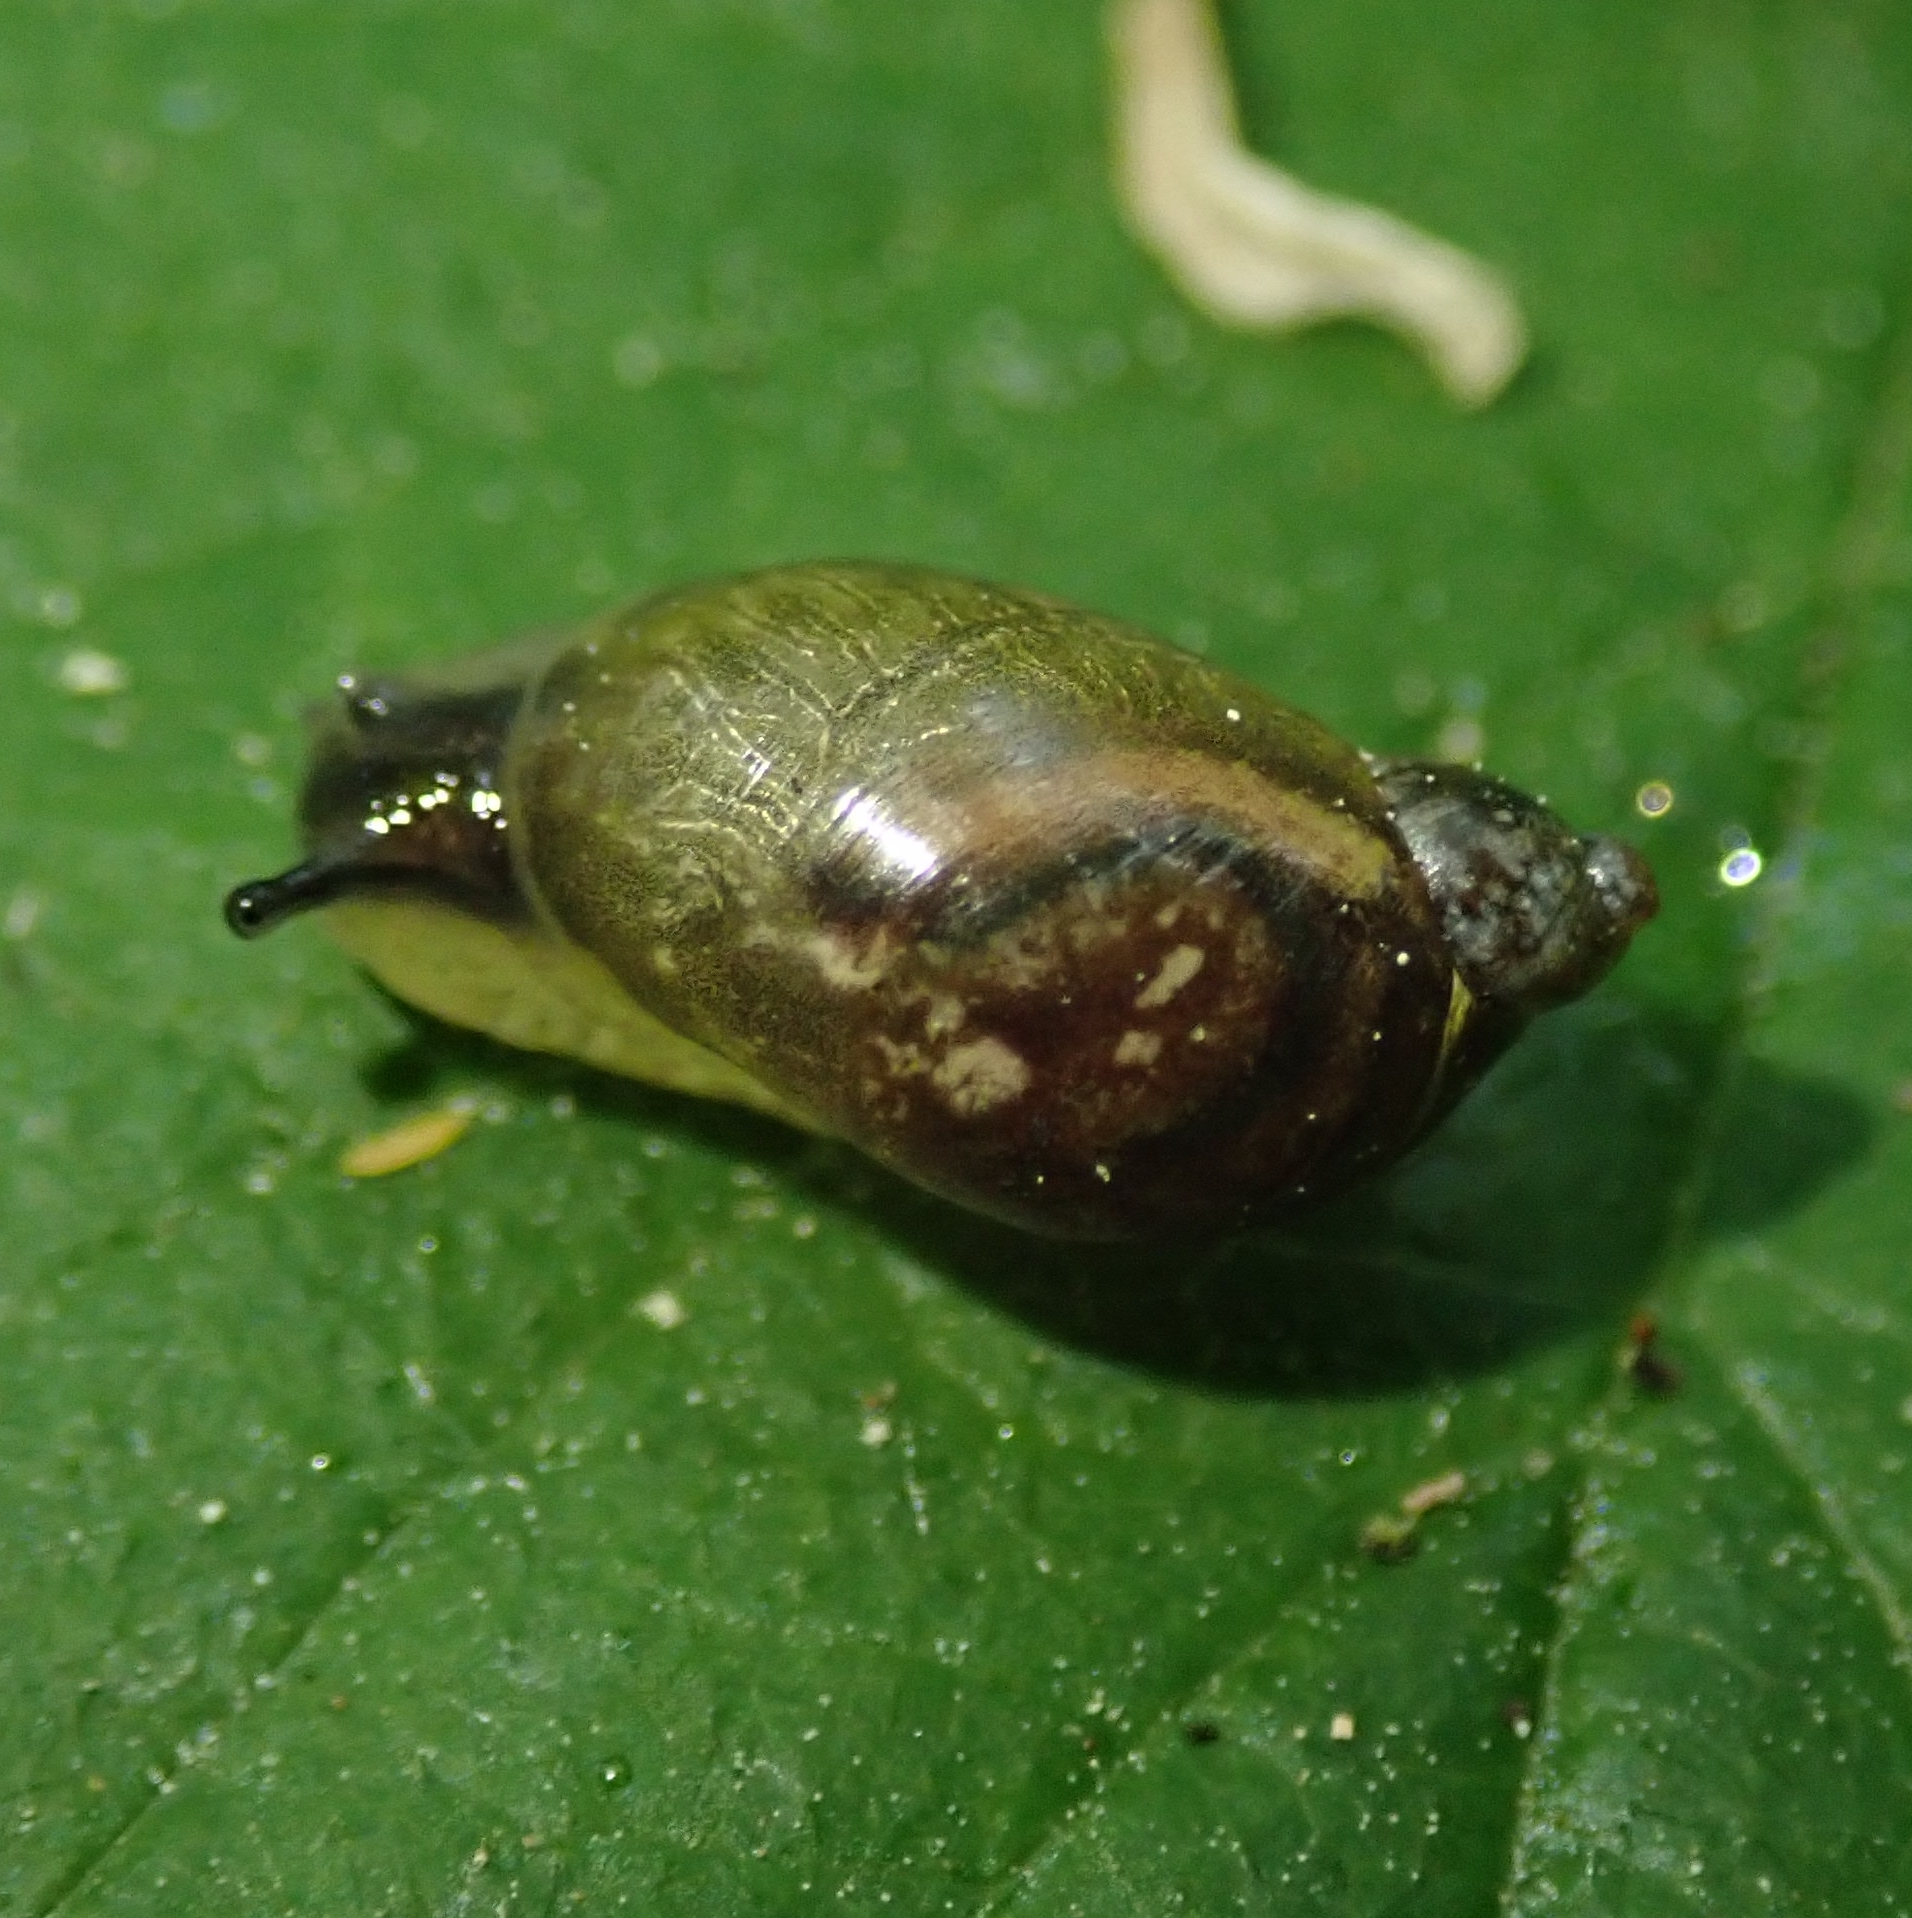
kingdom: Animalia
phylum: Mollusca
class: Gastropoda
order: Stylommatophora
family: Succineidae
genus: Succinea
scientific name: Succinea putris
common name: European ambersnail
